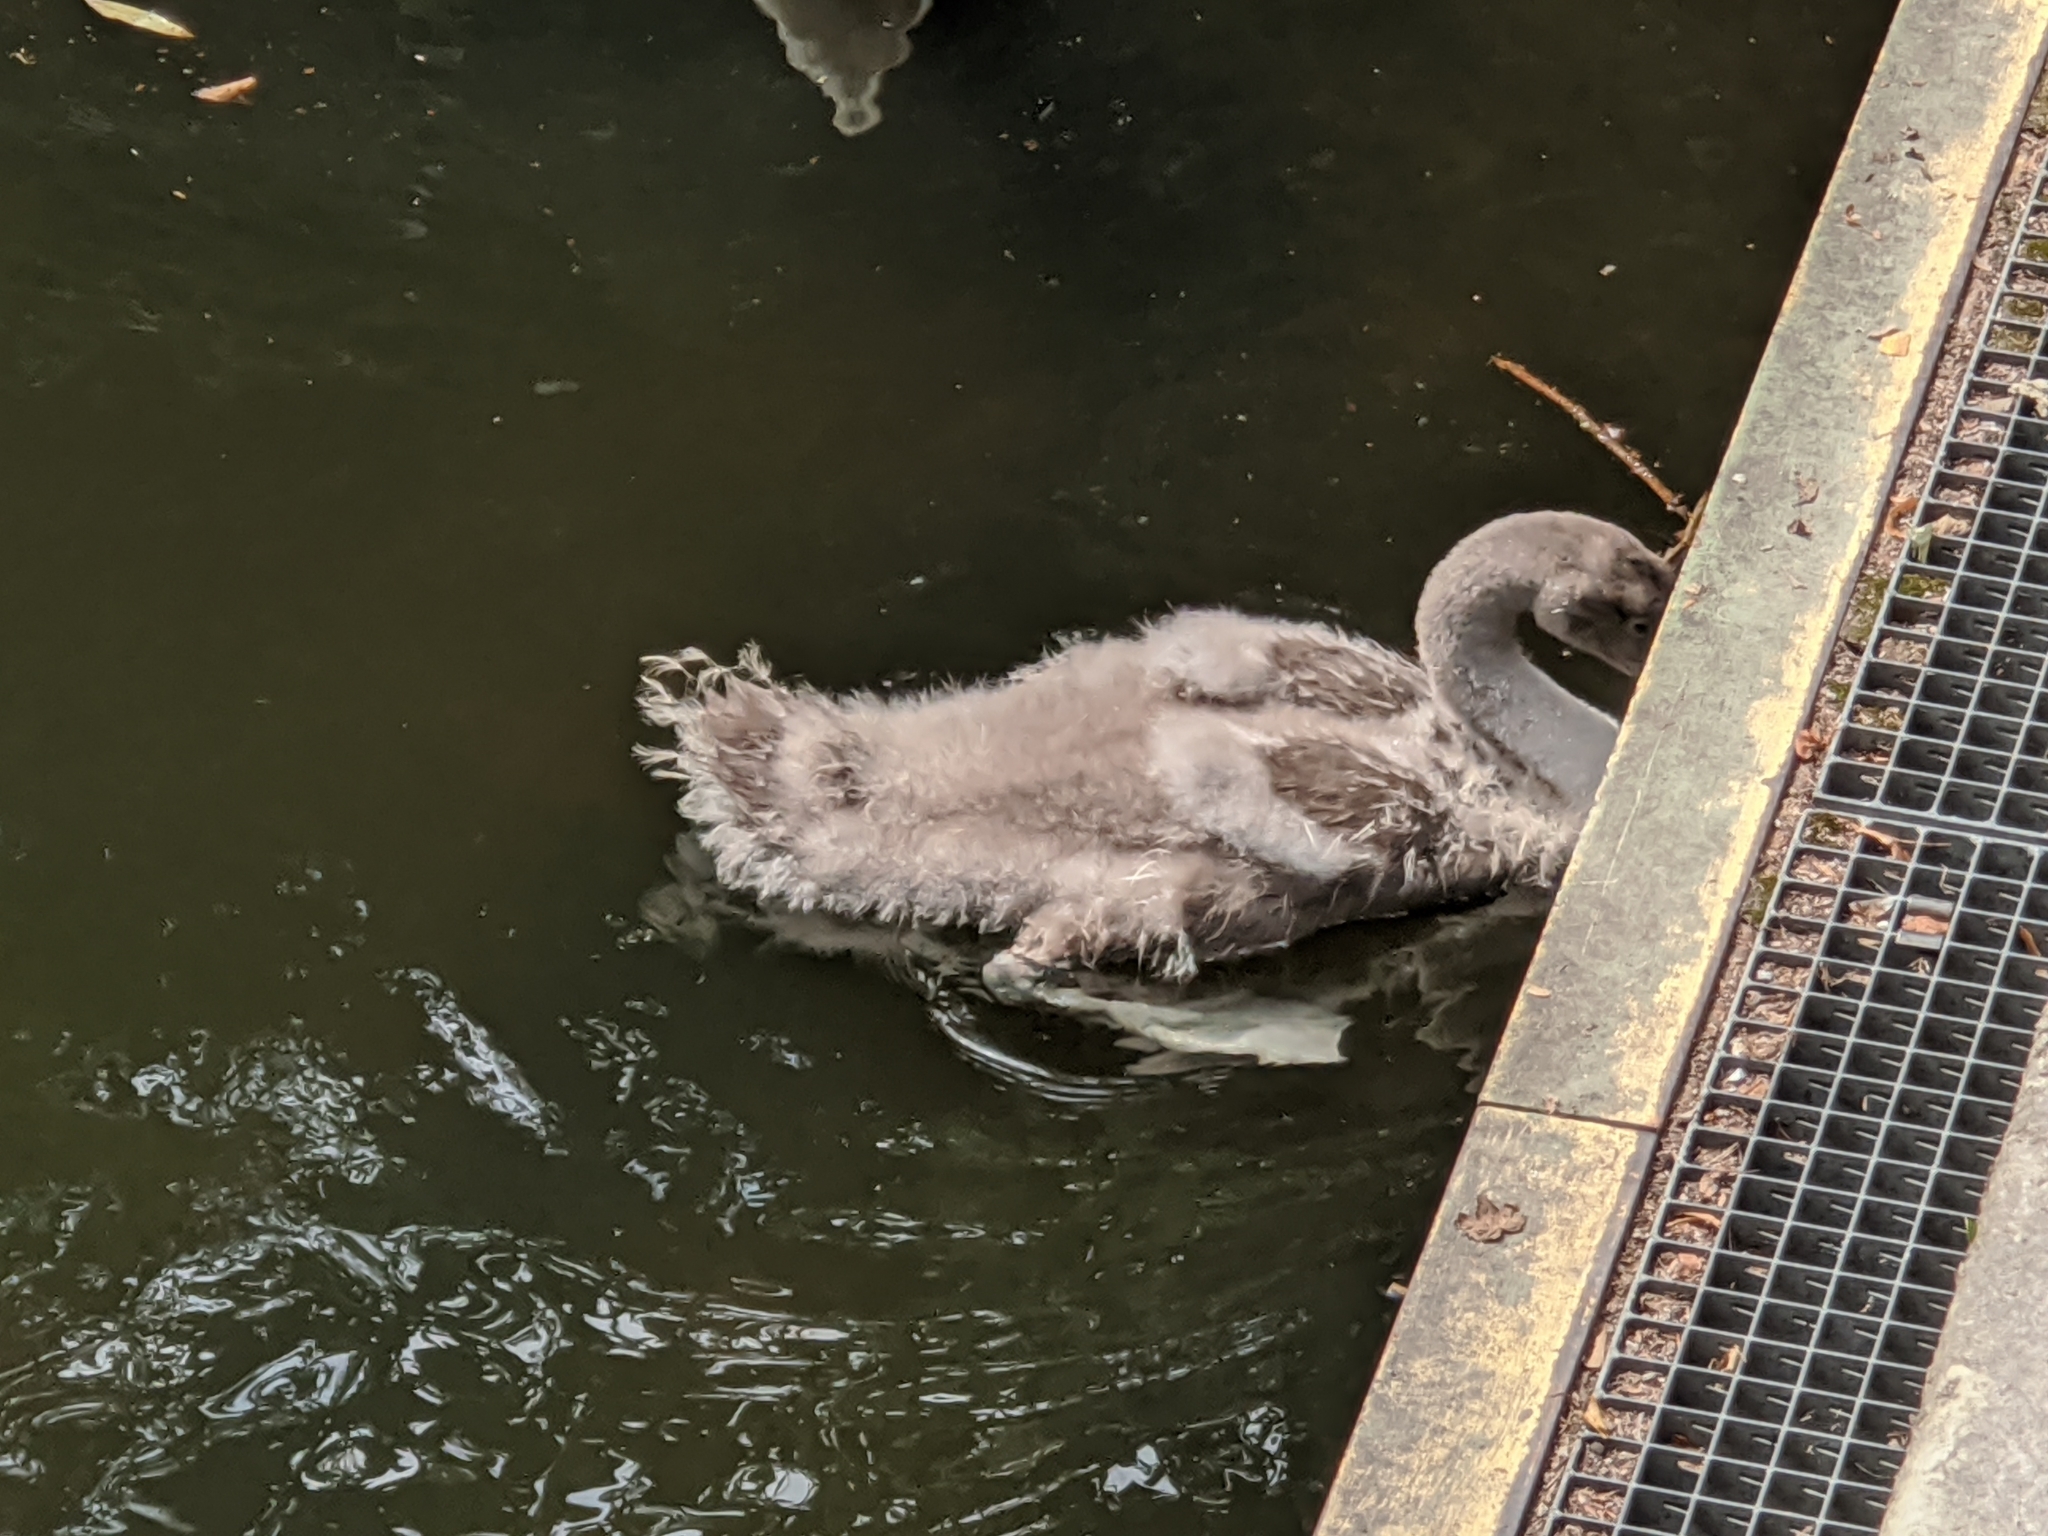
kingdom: Animalia
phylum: Chordata
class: Aves
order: Anseriformes
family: Anatidae
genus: Cygnus
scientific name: Cygnus olor
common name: Mute swan
